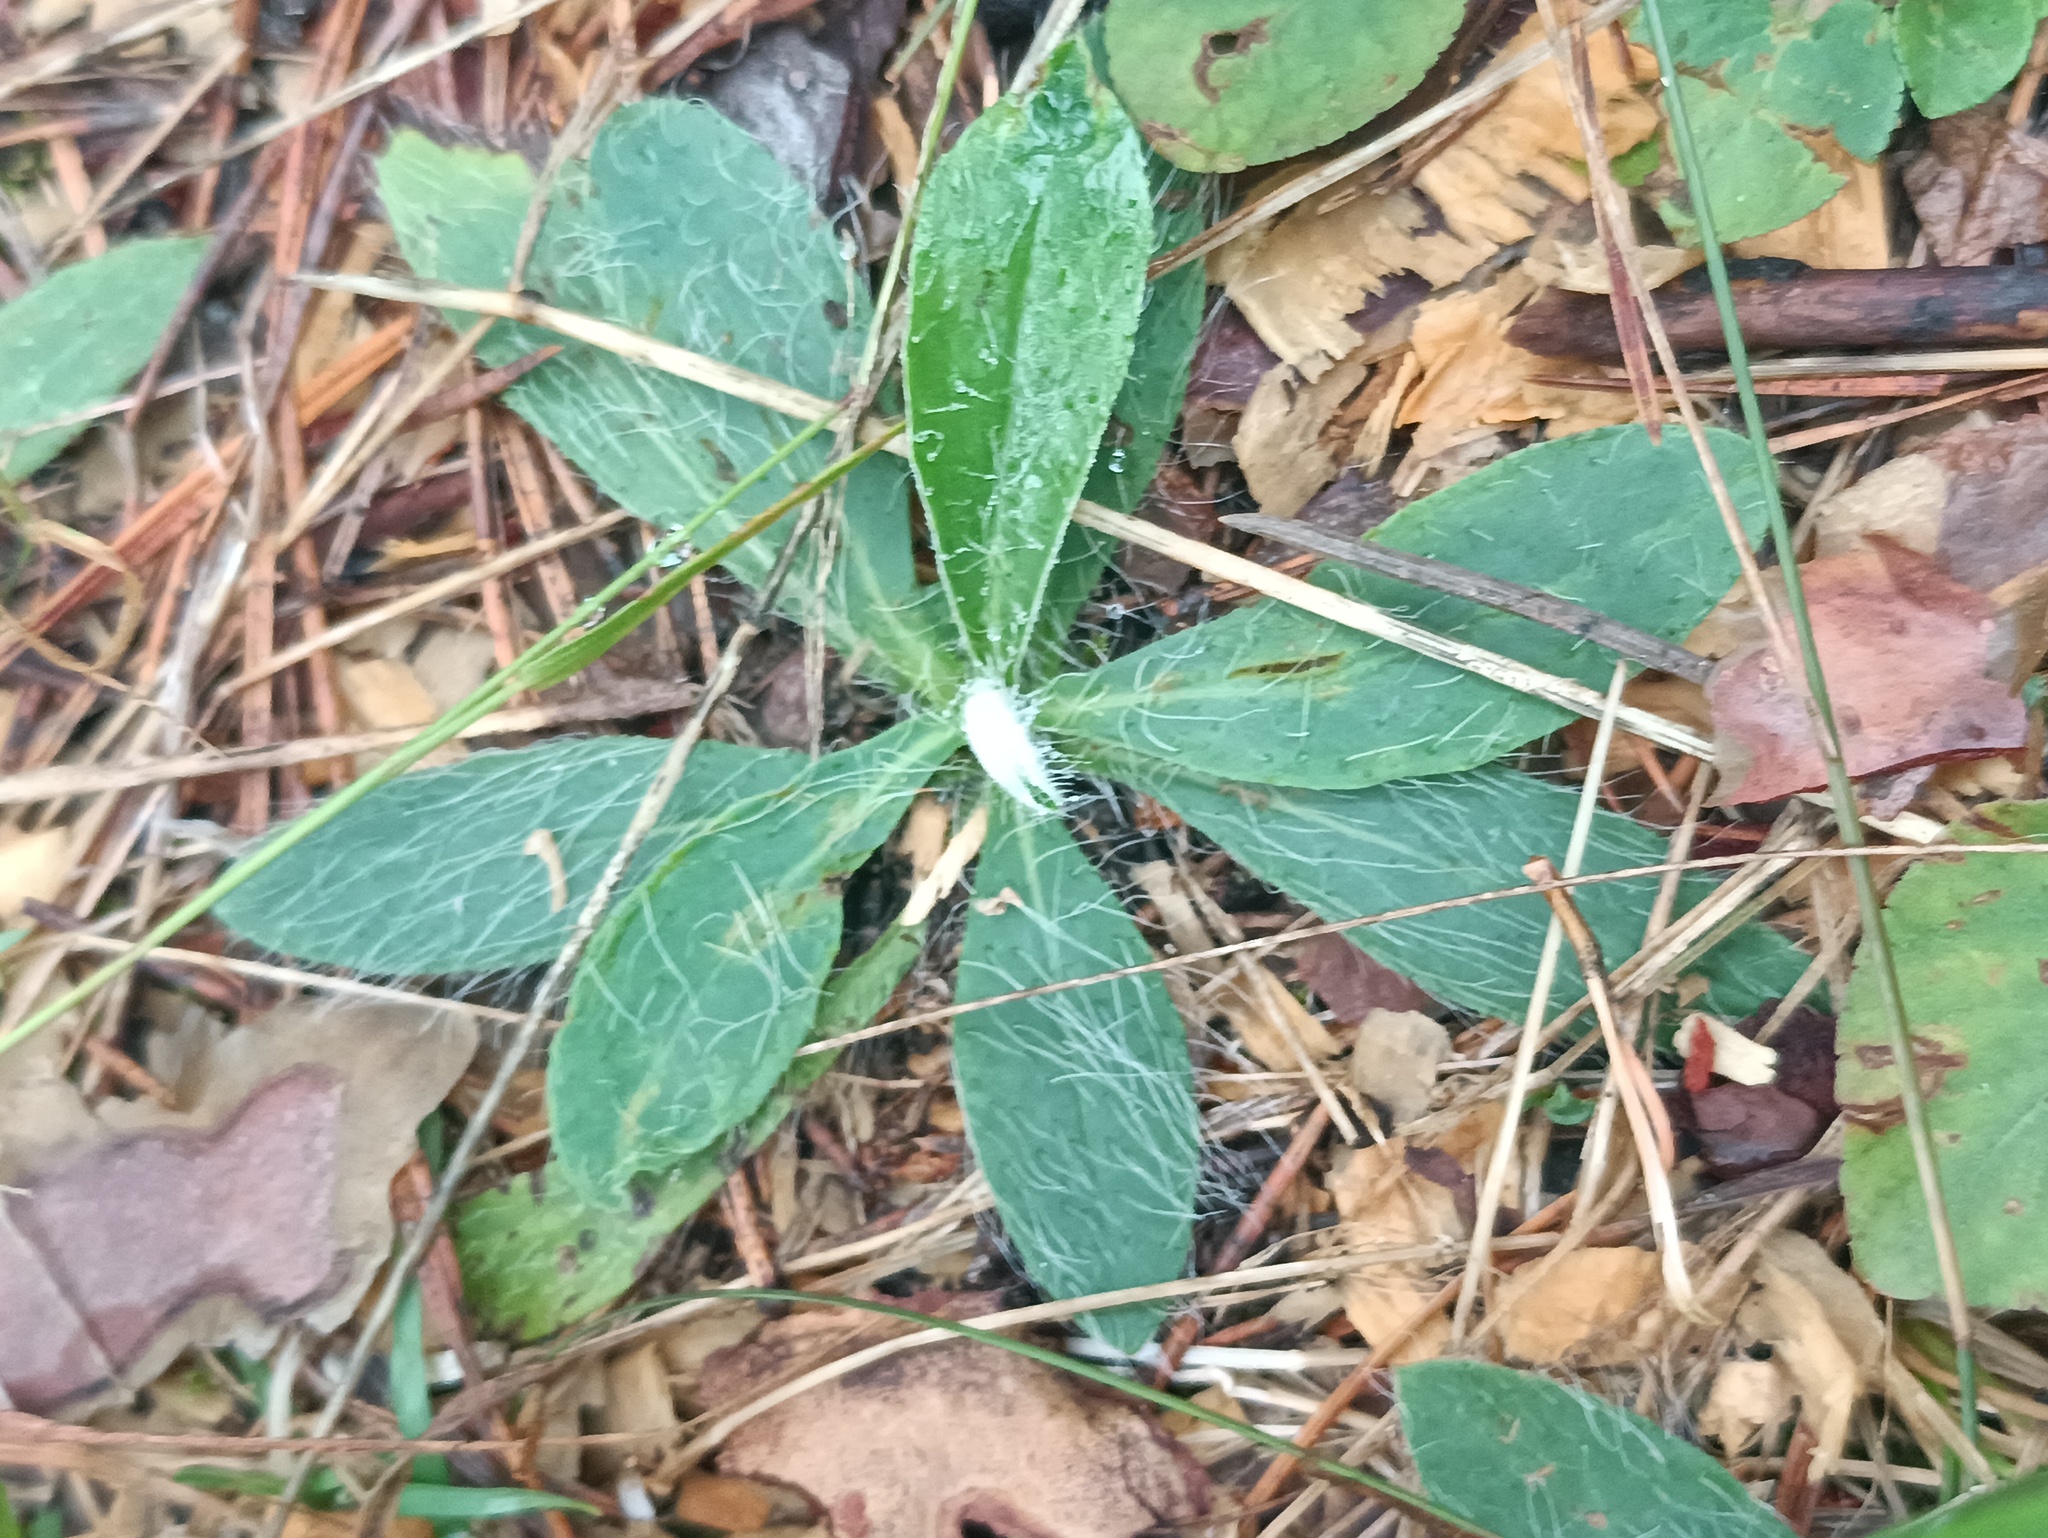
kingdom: Plantae
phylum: Tracheophyta
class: Magnoliopsida
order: Asterales
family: Asteraceae
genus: Pilosella
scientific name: Pilosella officinarum
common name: Mouse-ear hawkweed
